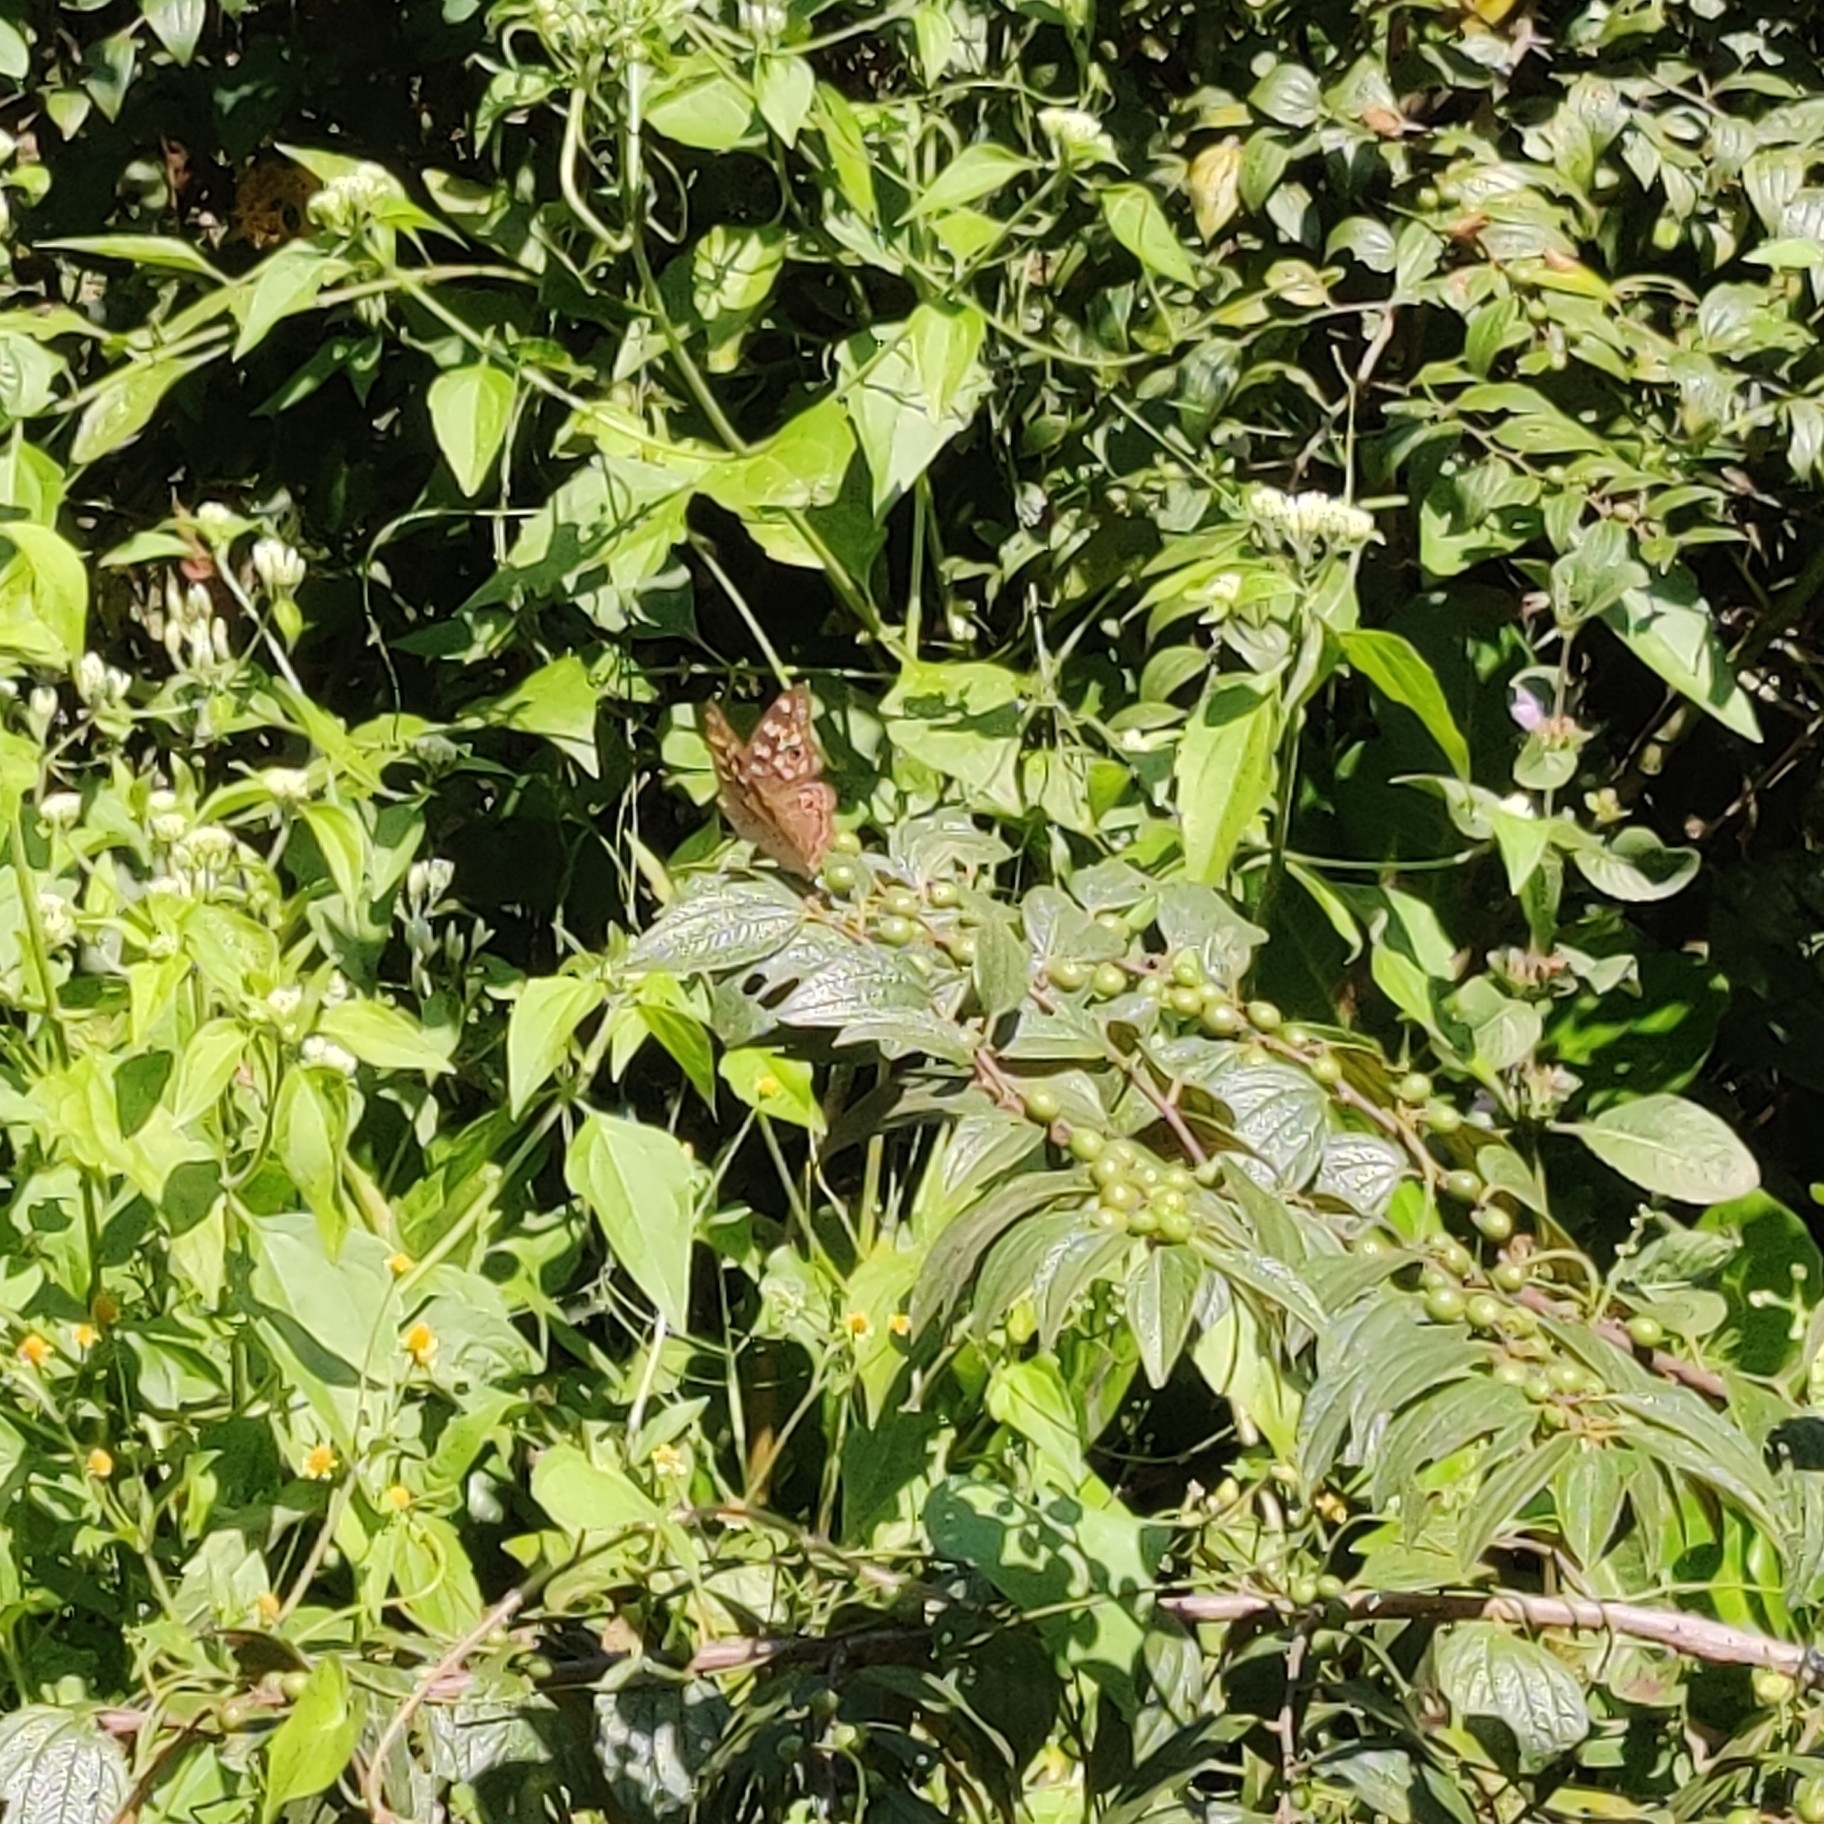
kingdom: Animalia
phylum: Arthropoda
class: Insecta
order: Lepidoptera
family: Nymphalidae
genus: Junonia
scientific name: Junonia lemonias
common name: Lemon pansy
